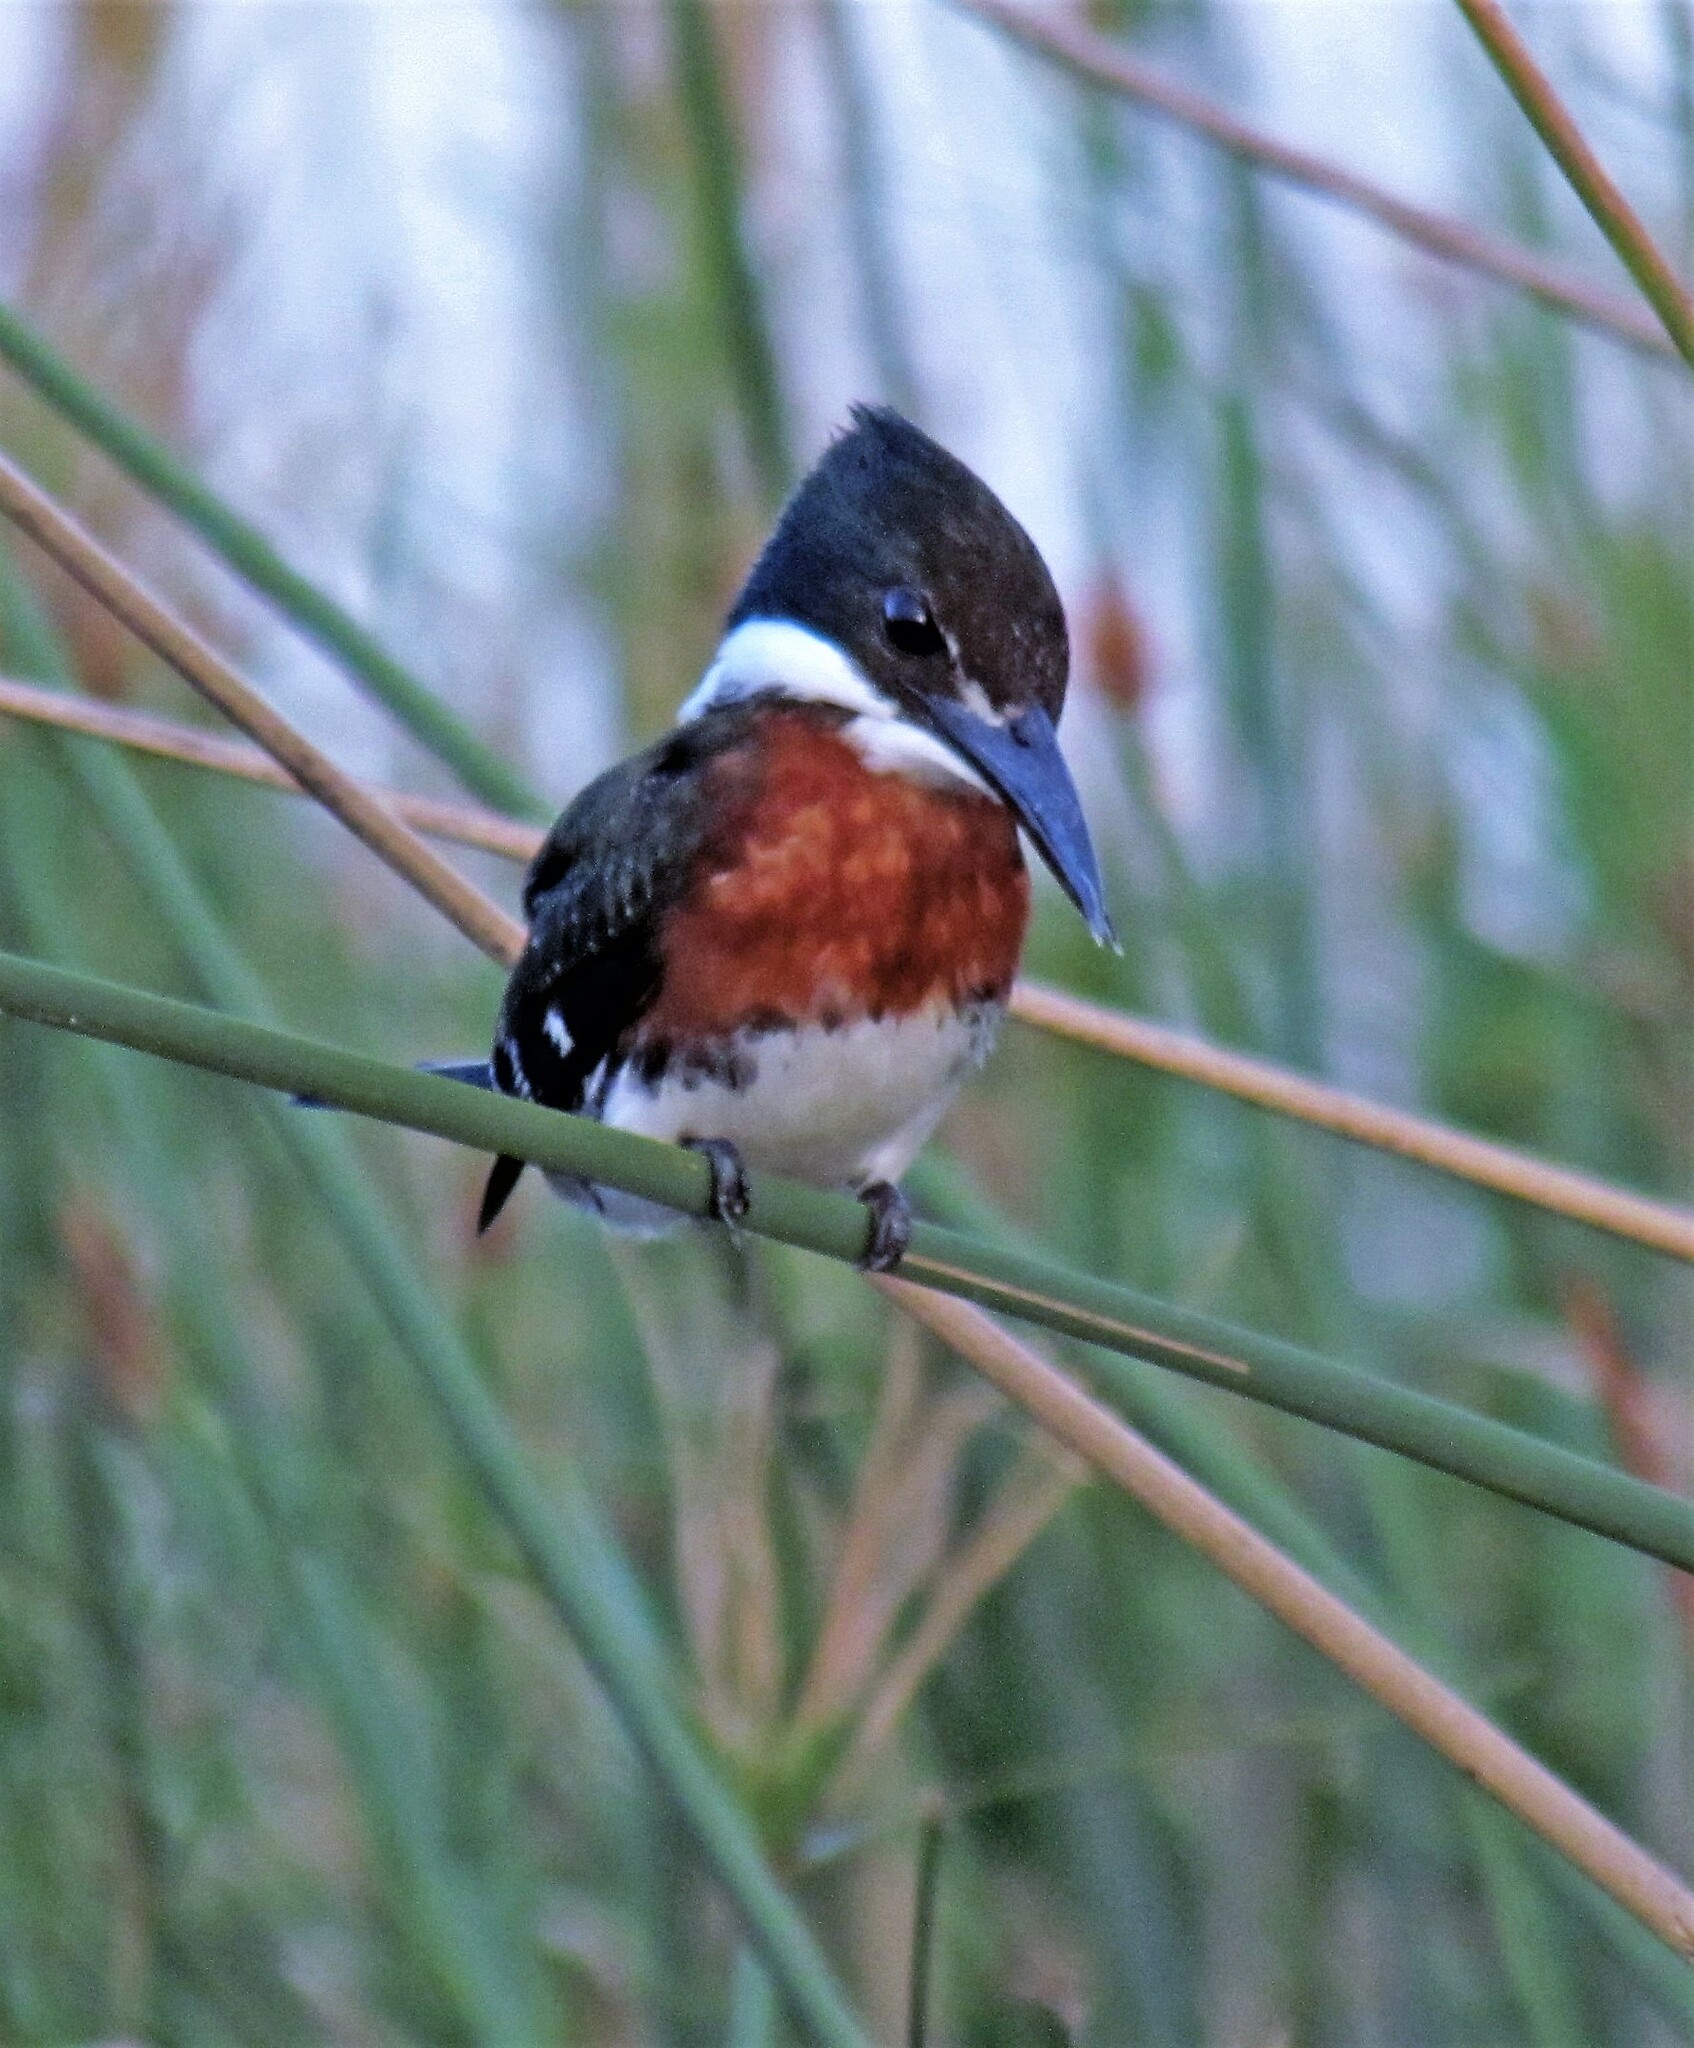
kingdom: Animalia
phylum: Chordata
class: Aves
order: Coraciiformes
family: Alcedinidae
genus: Chloroceryle
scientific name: Chloroceryle amazona
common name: Amazon kingfisher
